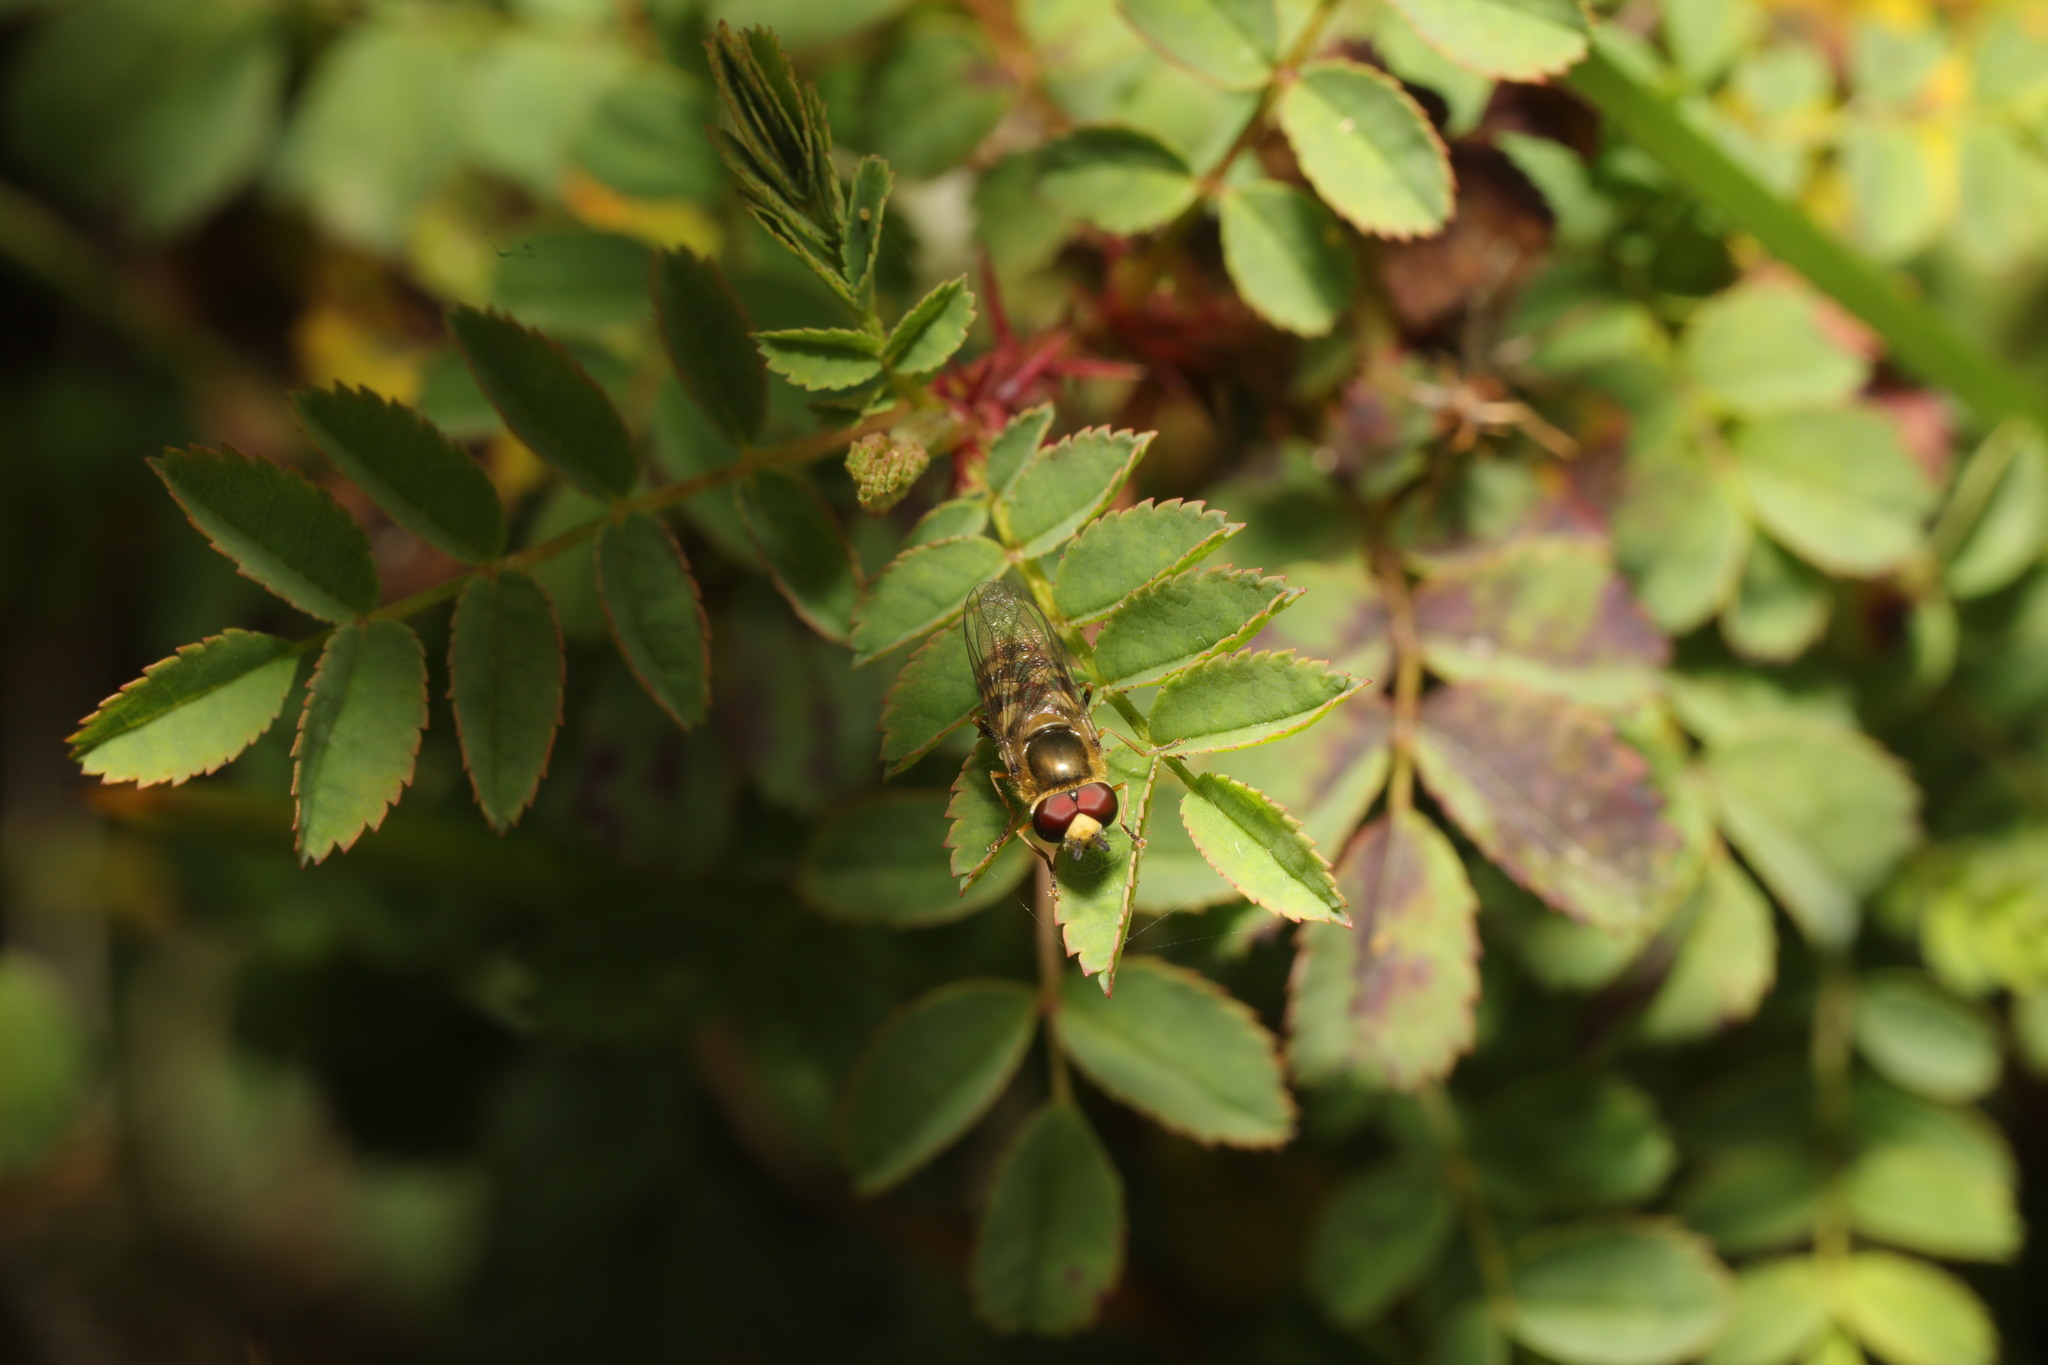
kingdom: Animalia
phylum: Arthropoda
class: Insecta
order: Diptera
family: Syrphidae
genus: Eupeodes
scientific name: Eupeodes
